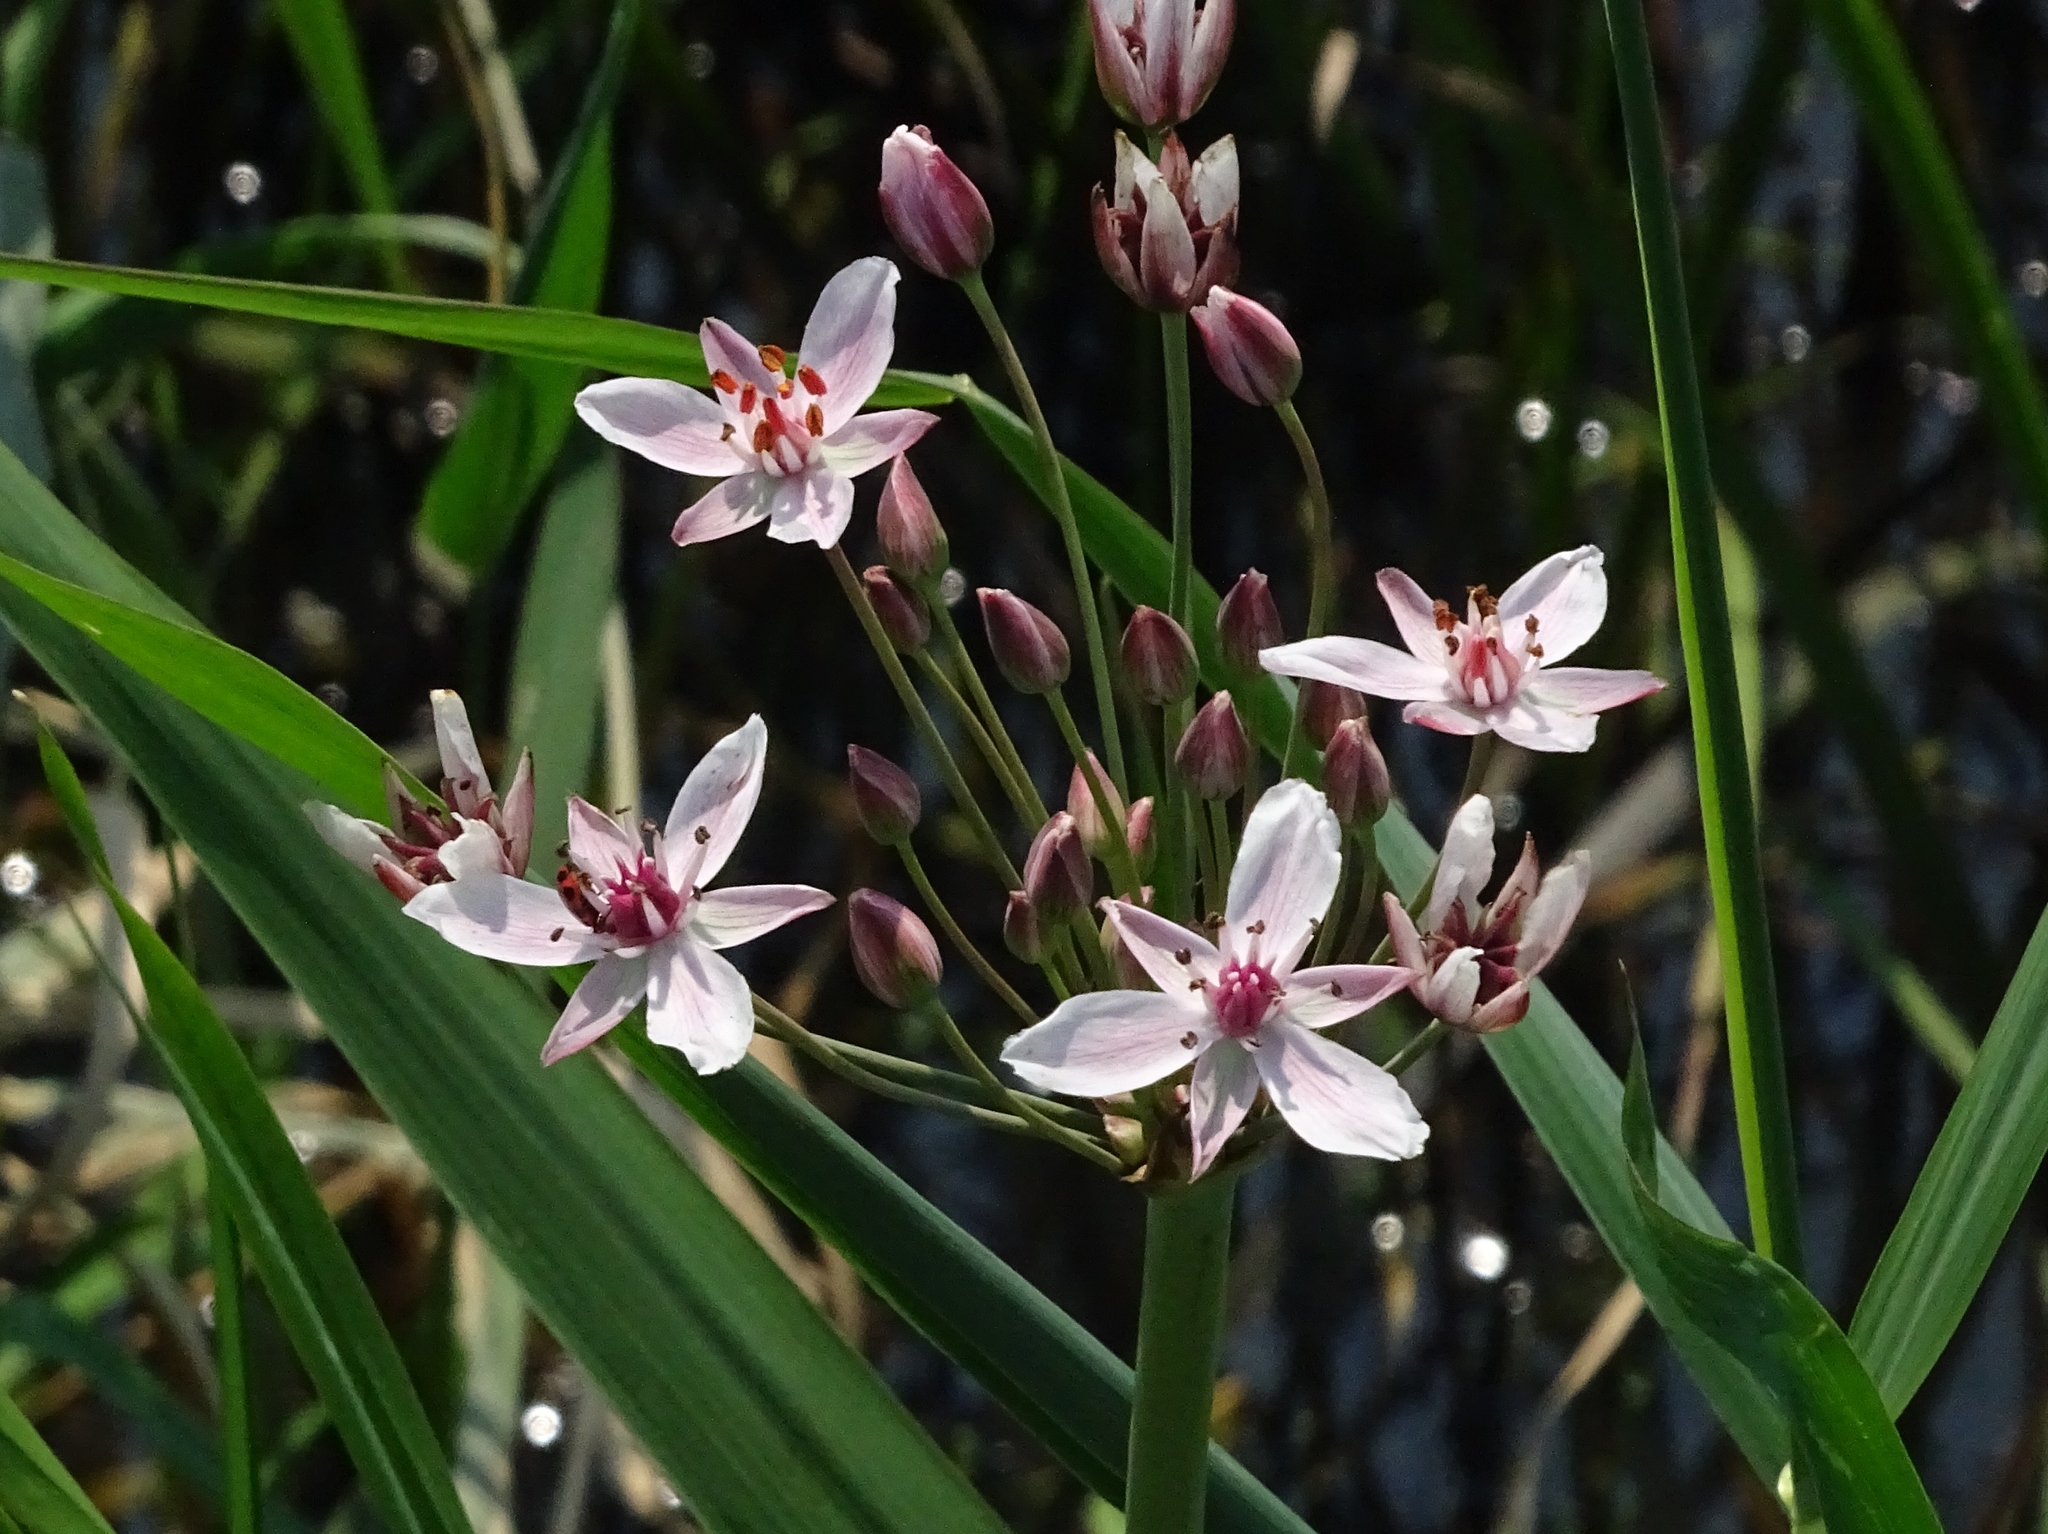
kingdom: Plantae
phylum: Tracheophyta
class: Liliopsida
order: Alismatales
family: Butomaceae
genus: Butomus
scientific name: Butomus umbellatus
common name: Flowering-rush
